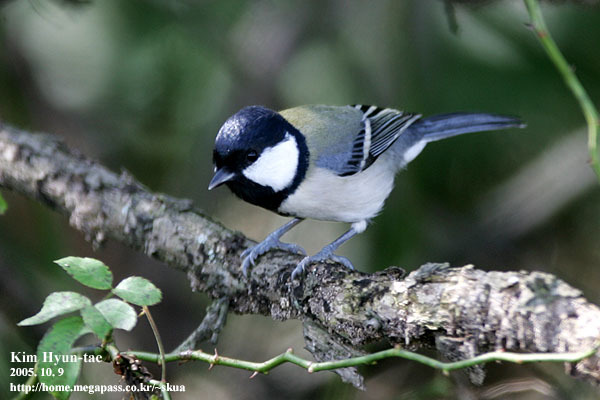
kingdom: Animalia
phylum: Chordata
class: Aves
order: Passeriformes
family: Paridae
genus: Parus
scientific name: Parus minor
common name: Japanese tit
